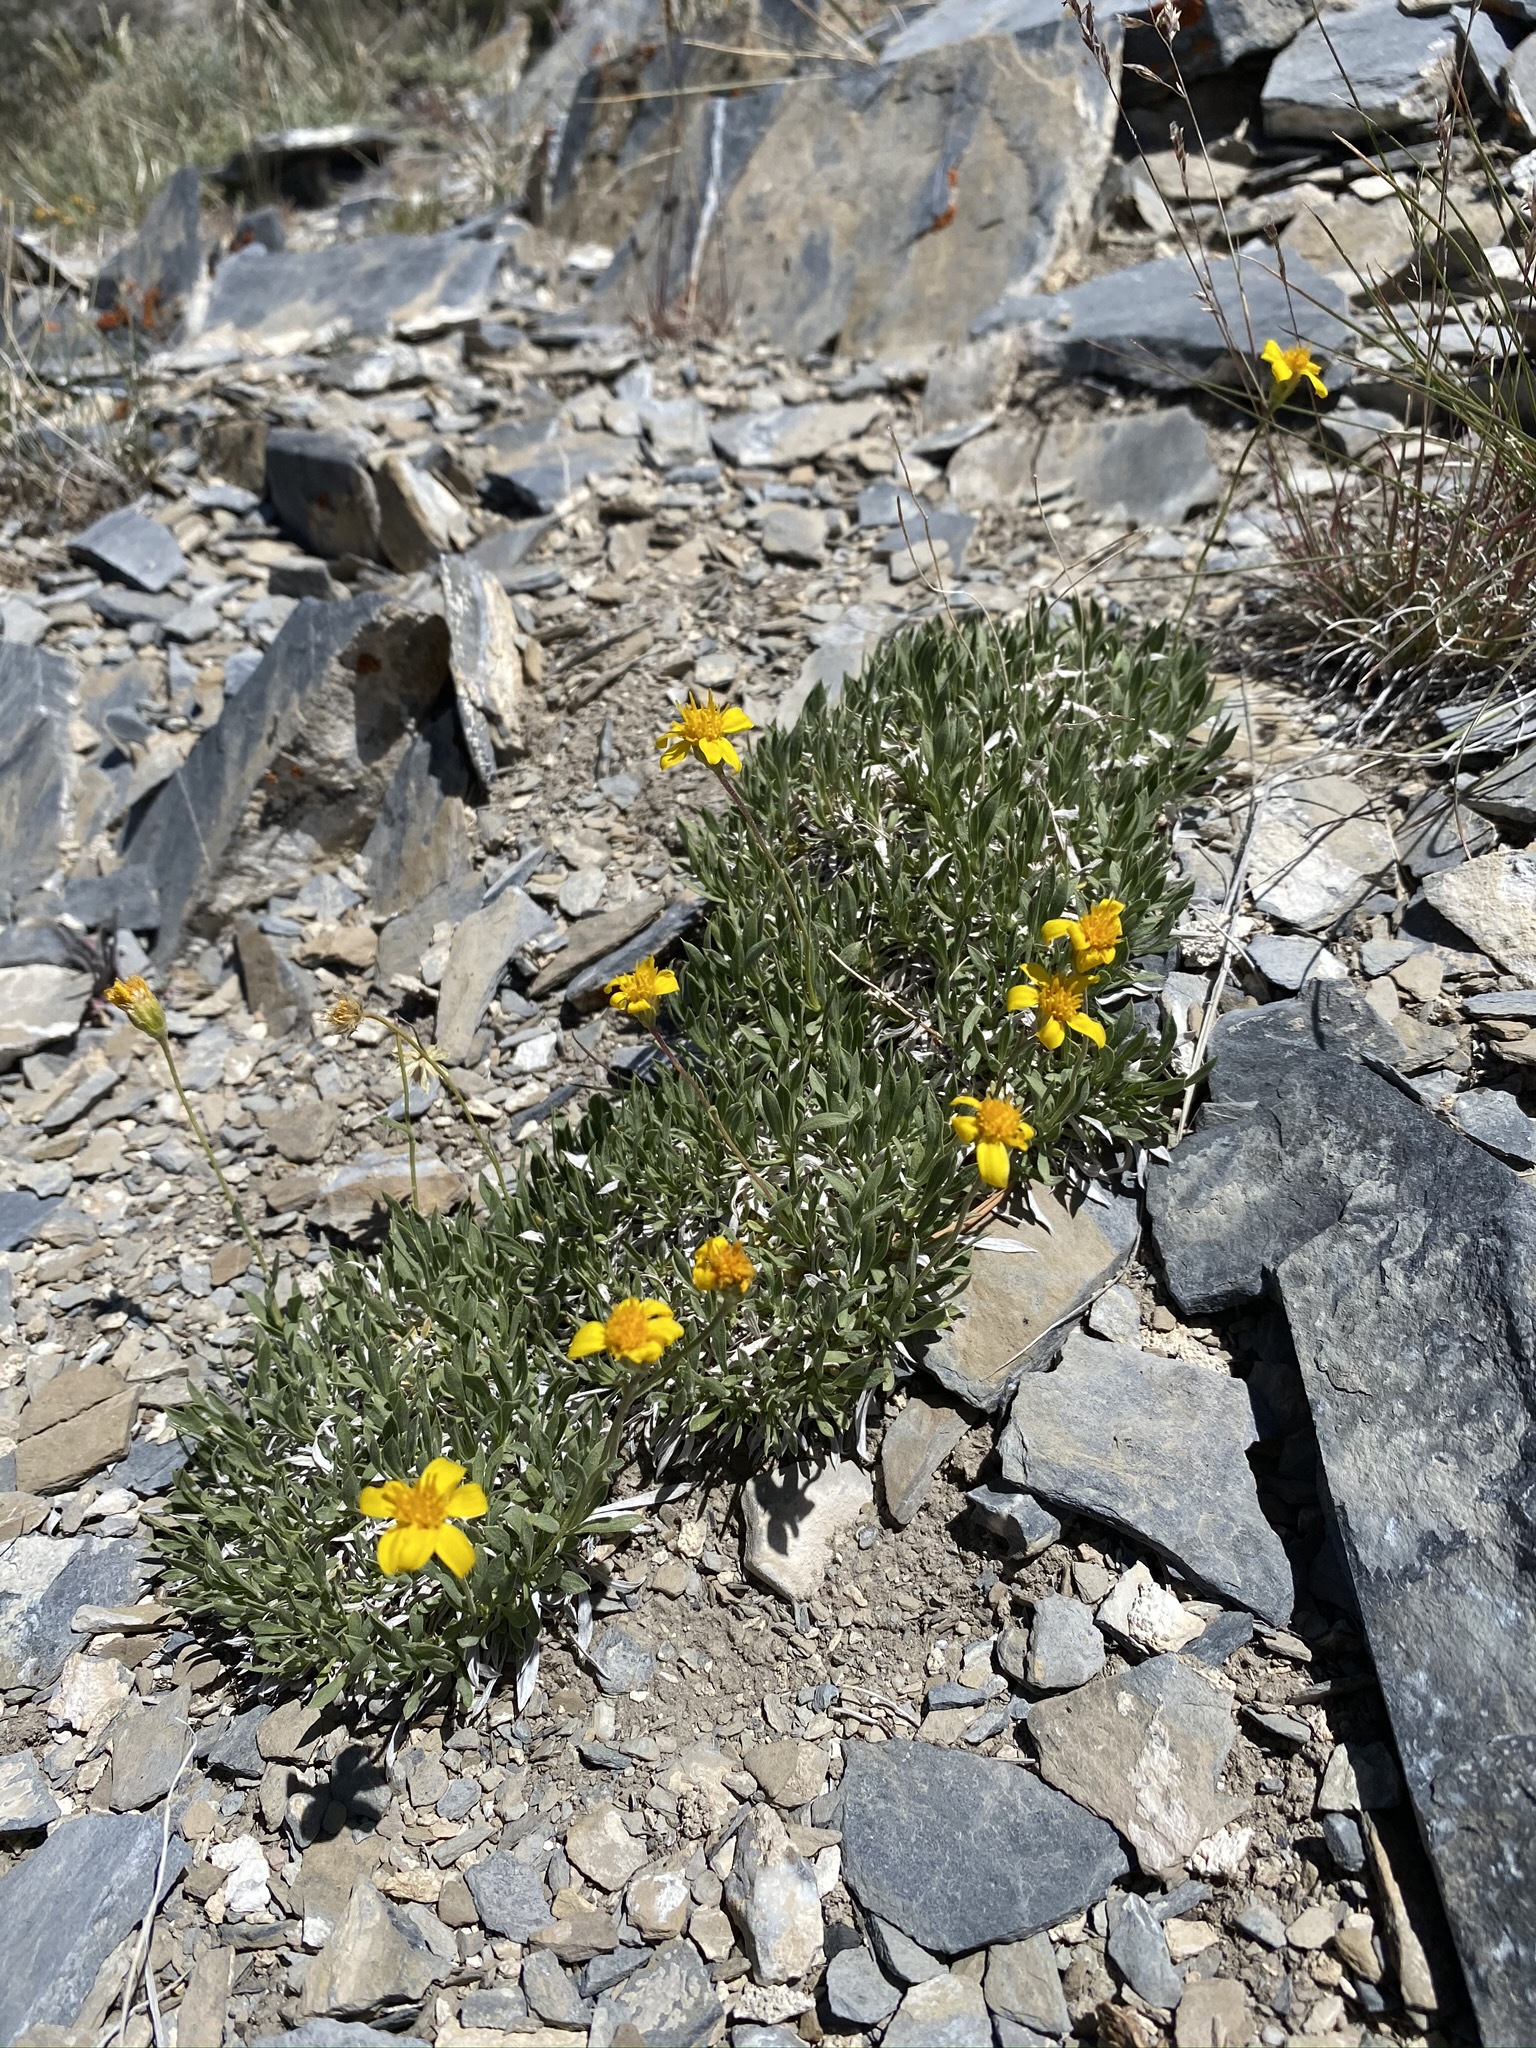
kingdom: Plantae
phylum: Tracheophyta
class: Magnoliopsida
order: Asterales
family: Asteraceae
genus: Stenotus
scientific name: Stenotus acaulis
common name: Stemless goldenweed
